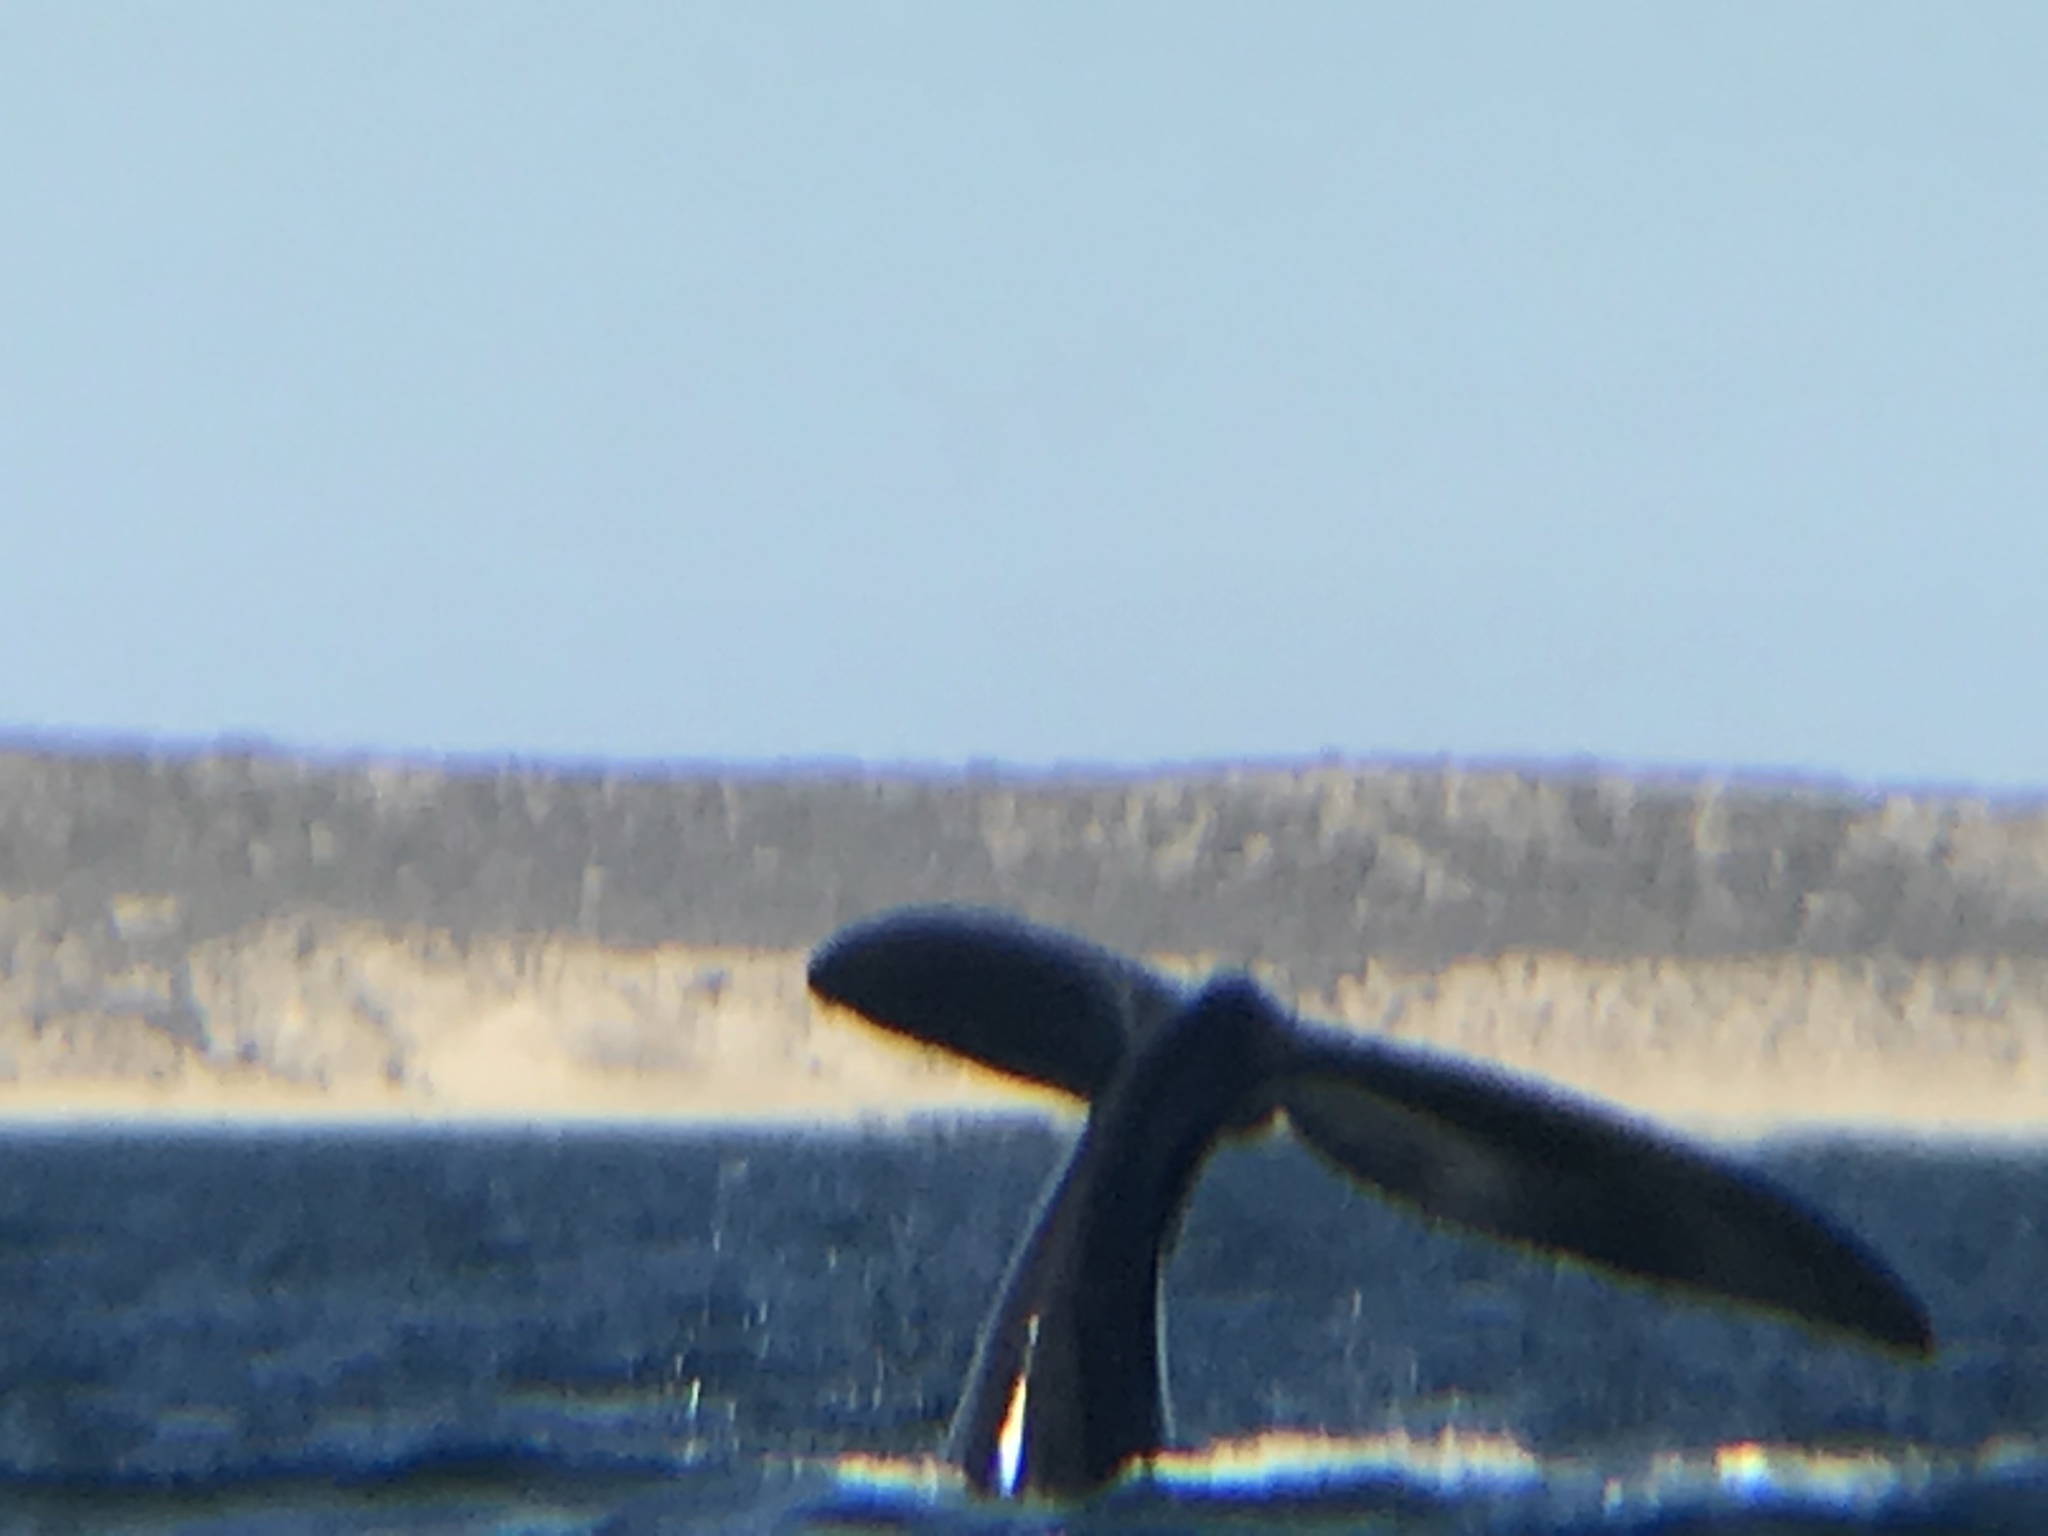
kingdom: Animalia
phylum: Chordata
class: Mammalia
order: Cetacea
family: Balaenidae
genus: Eubalaena
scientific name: Eubalaena australis
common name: Southern right whale
